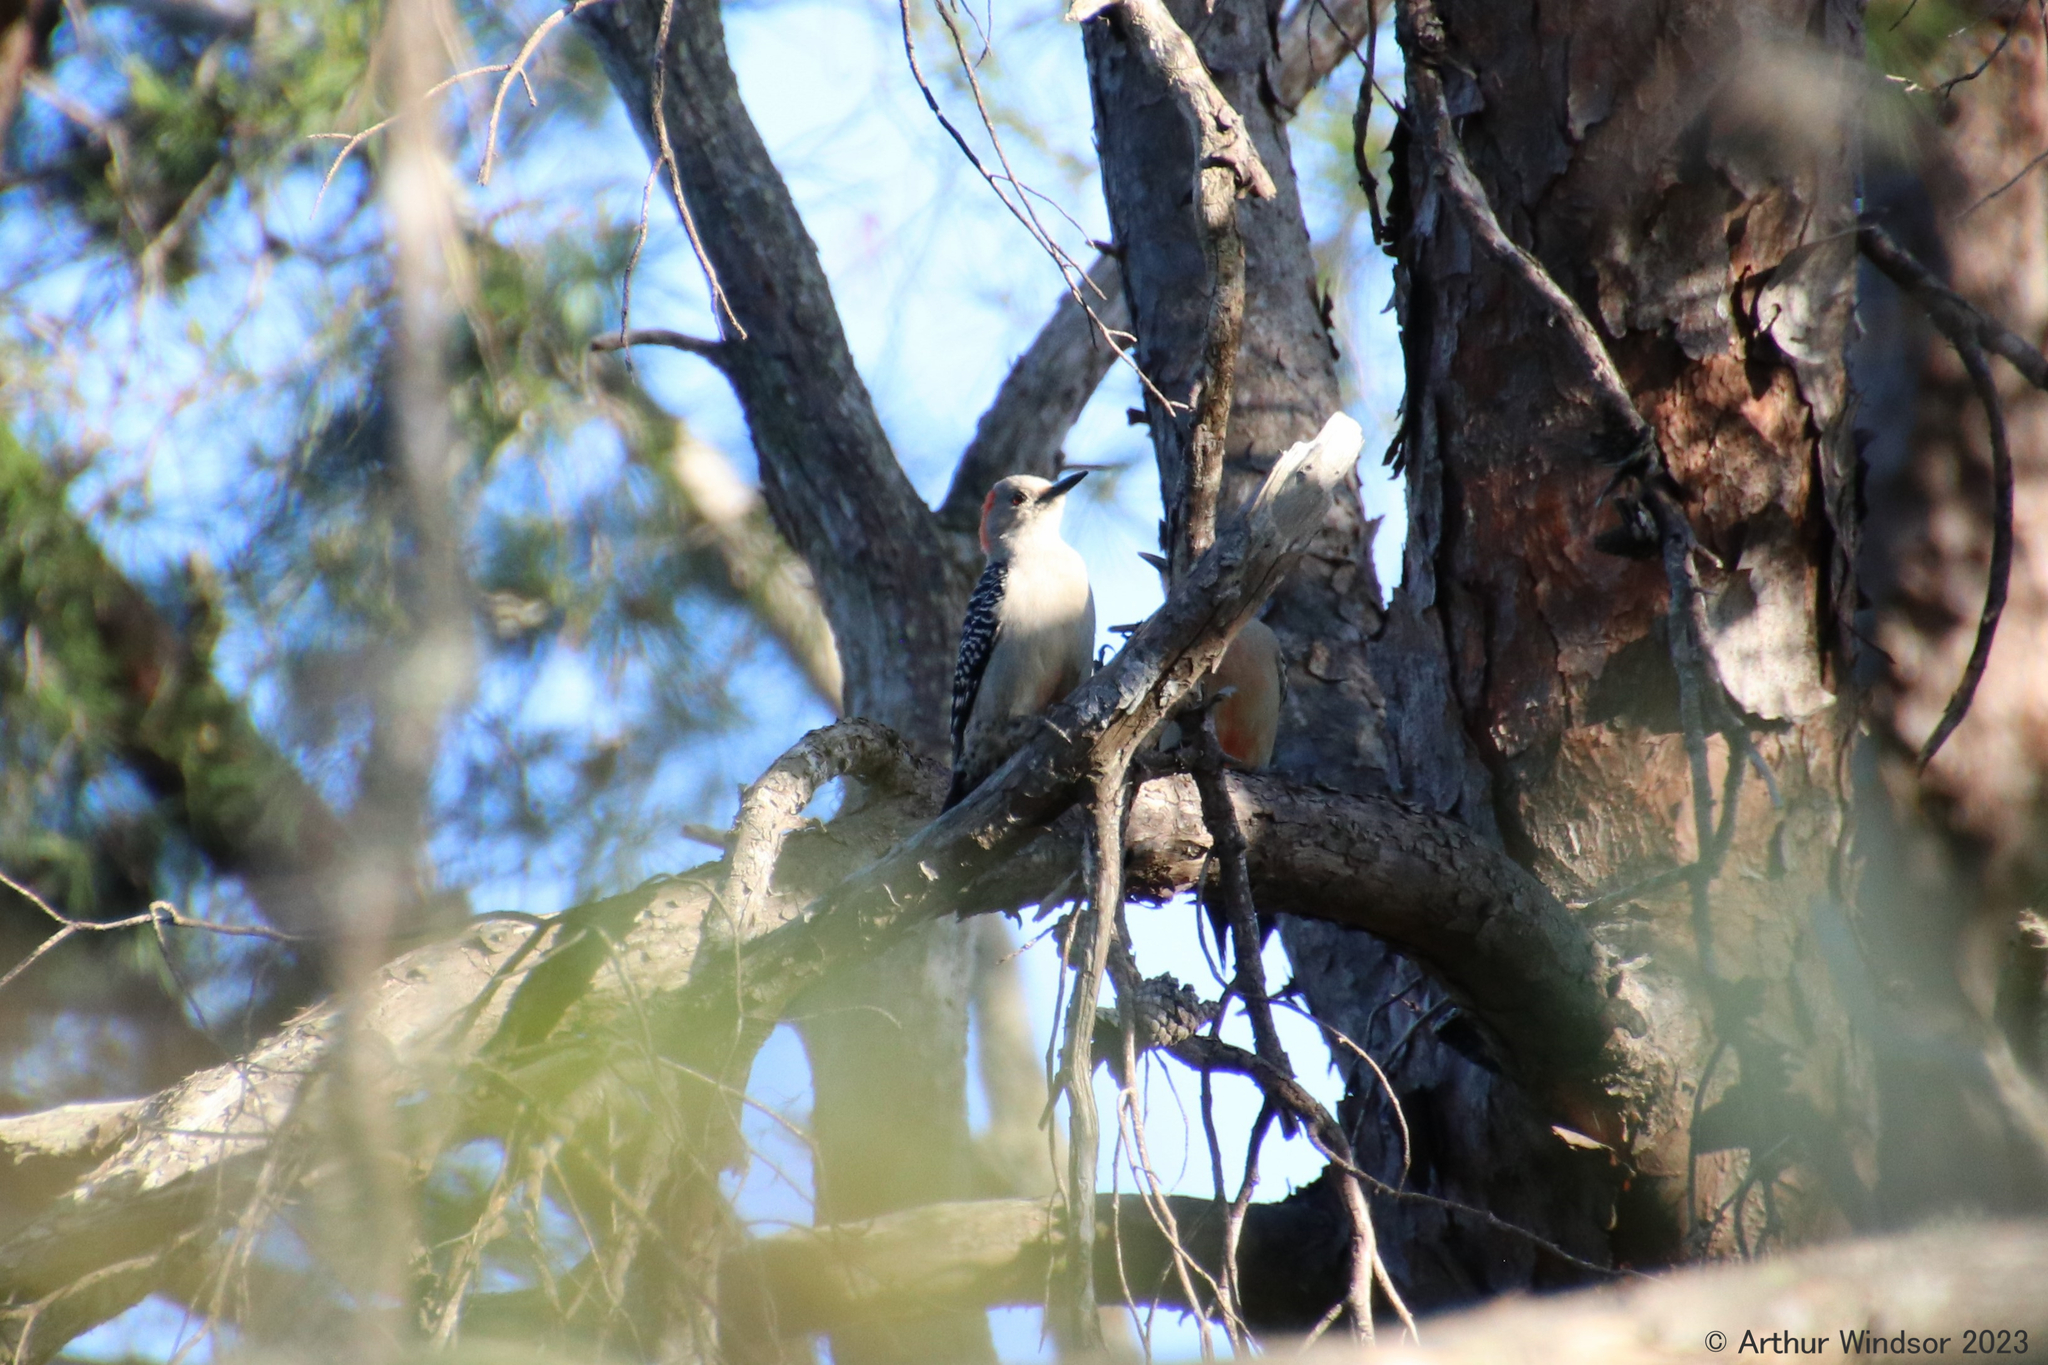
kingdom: Animalia
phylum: Chordata
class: Aves
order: Piciformes
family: Picidae
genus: Melanerpes
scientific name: Melanerpes carolinus
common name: Red-bellied woodpecker
